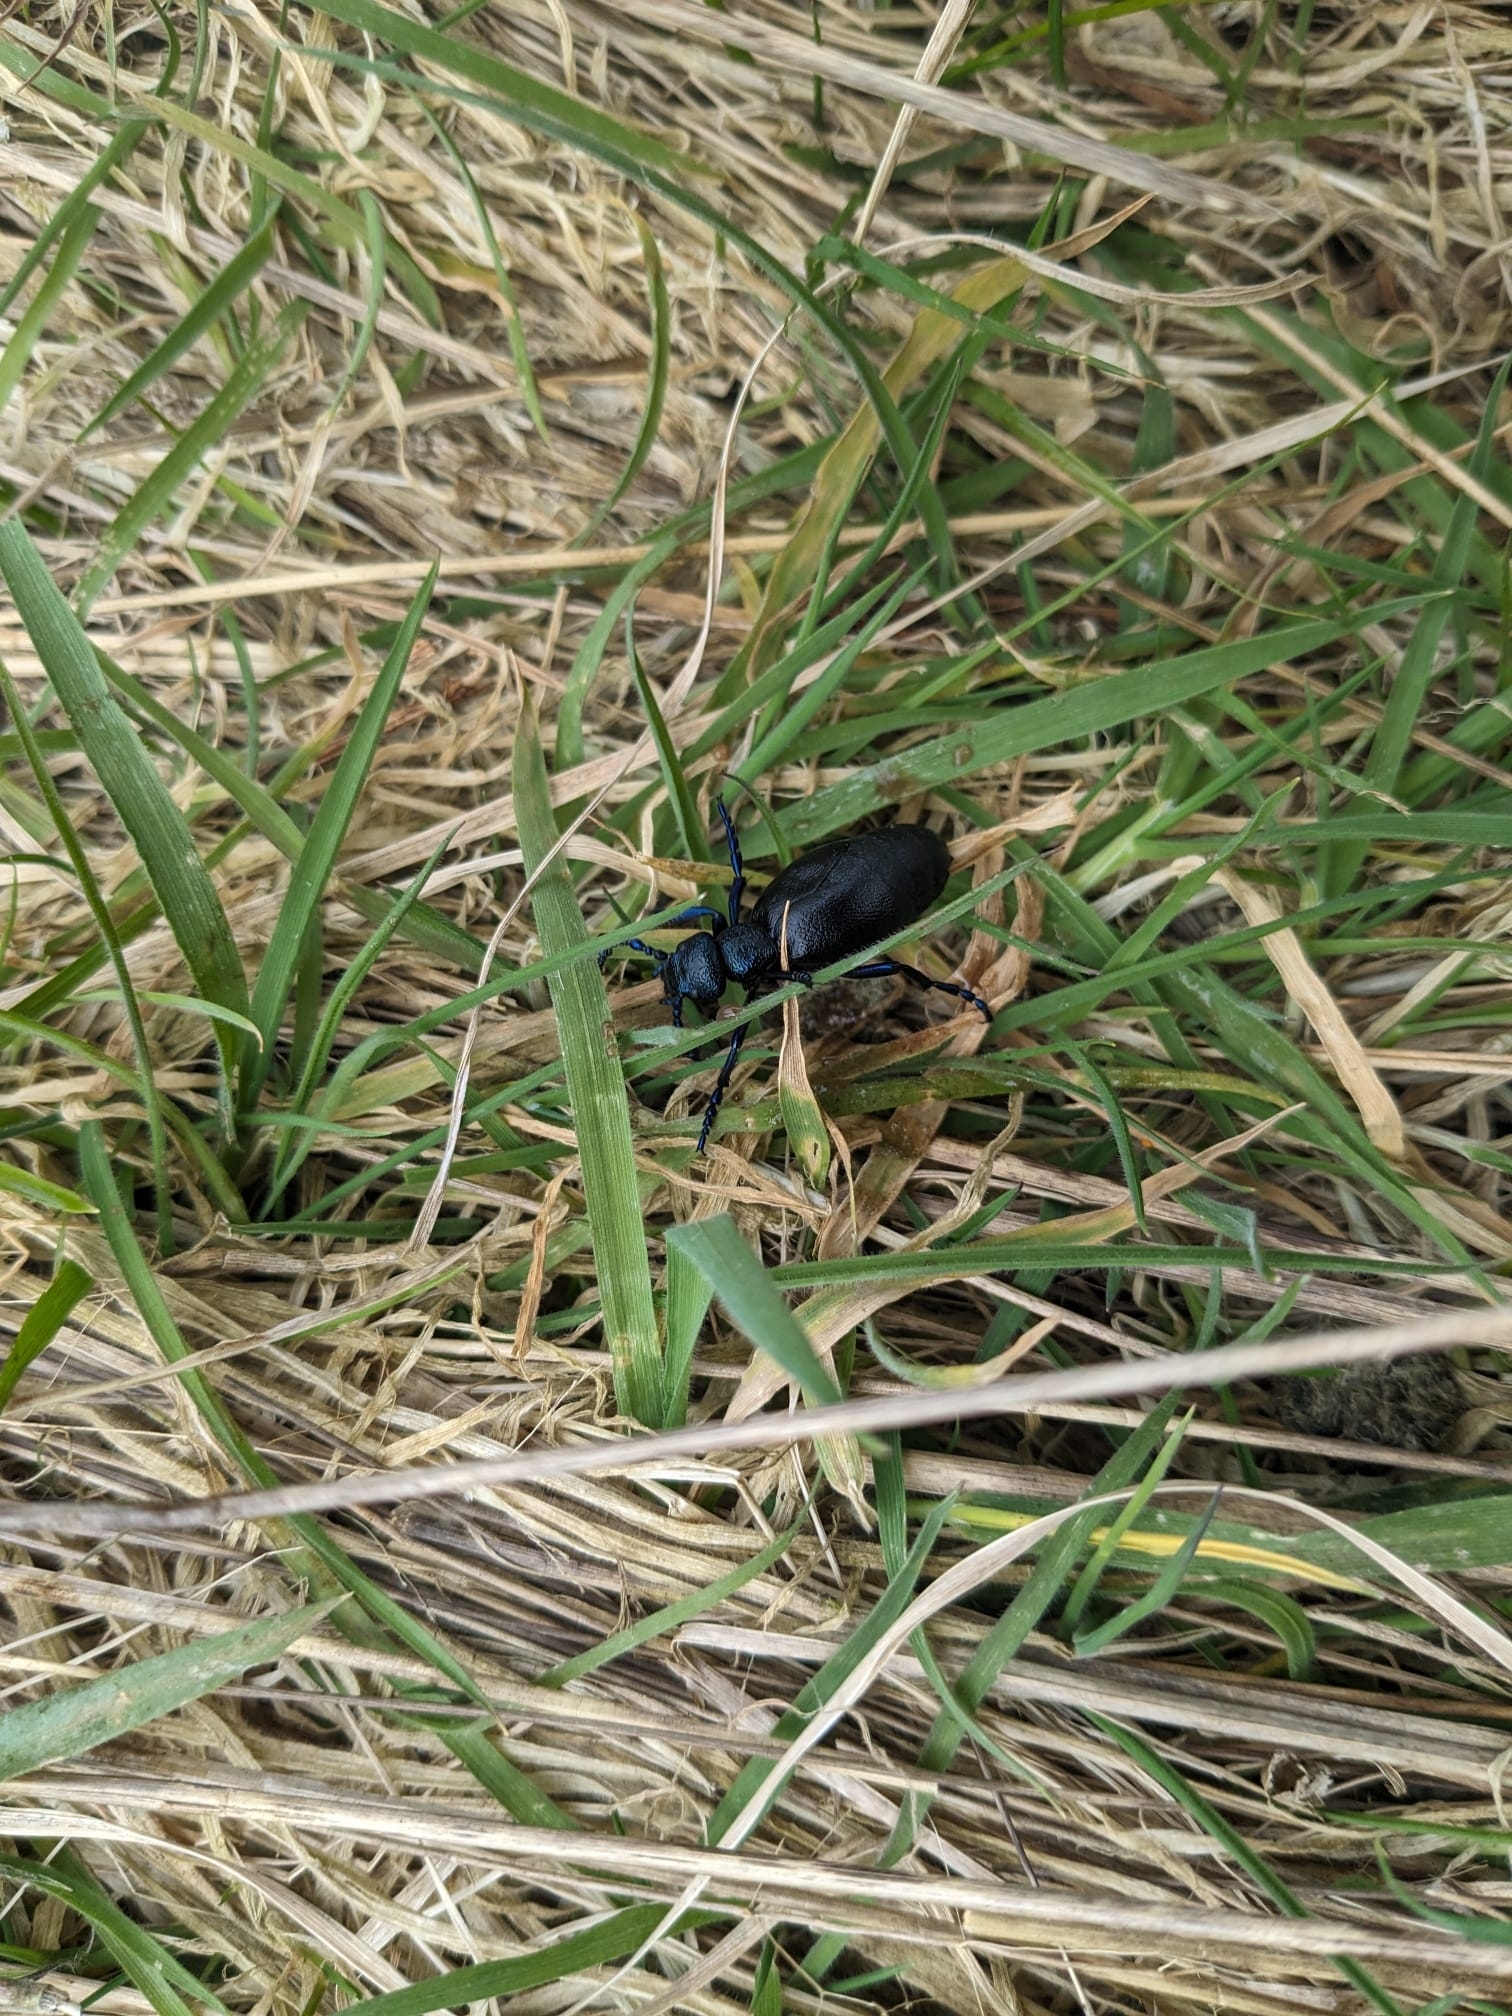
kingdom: Animalia
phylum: Arthropoda
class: Insecta
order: Coleoptera
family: Meloidae
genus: Meloe
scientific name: Meloe proscarabaeus
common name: Black oil-beetle
